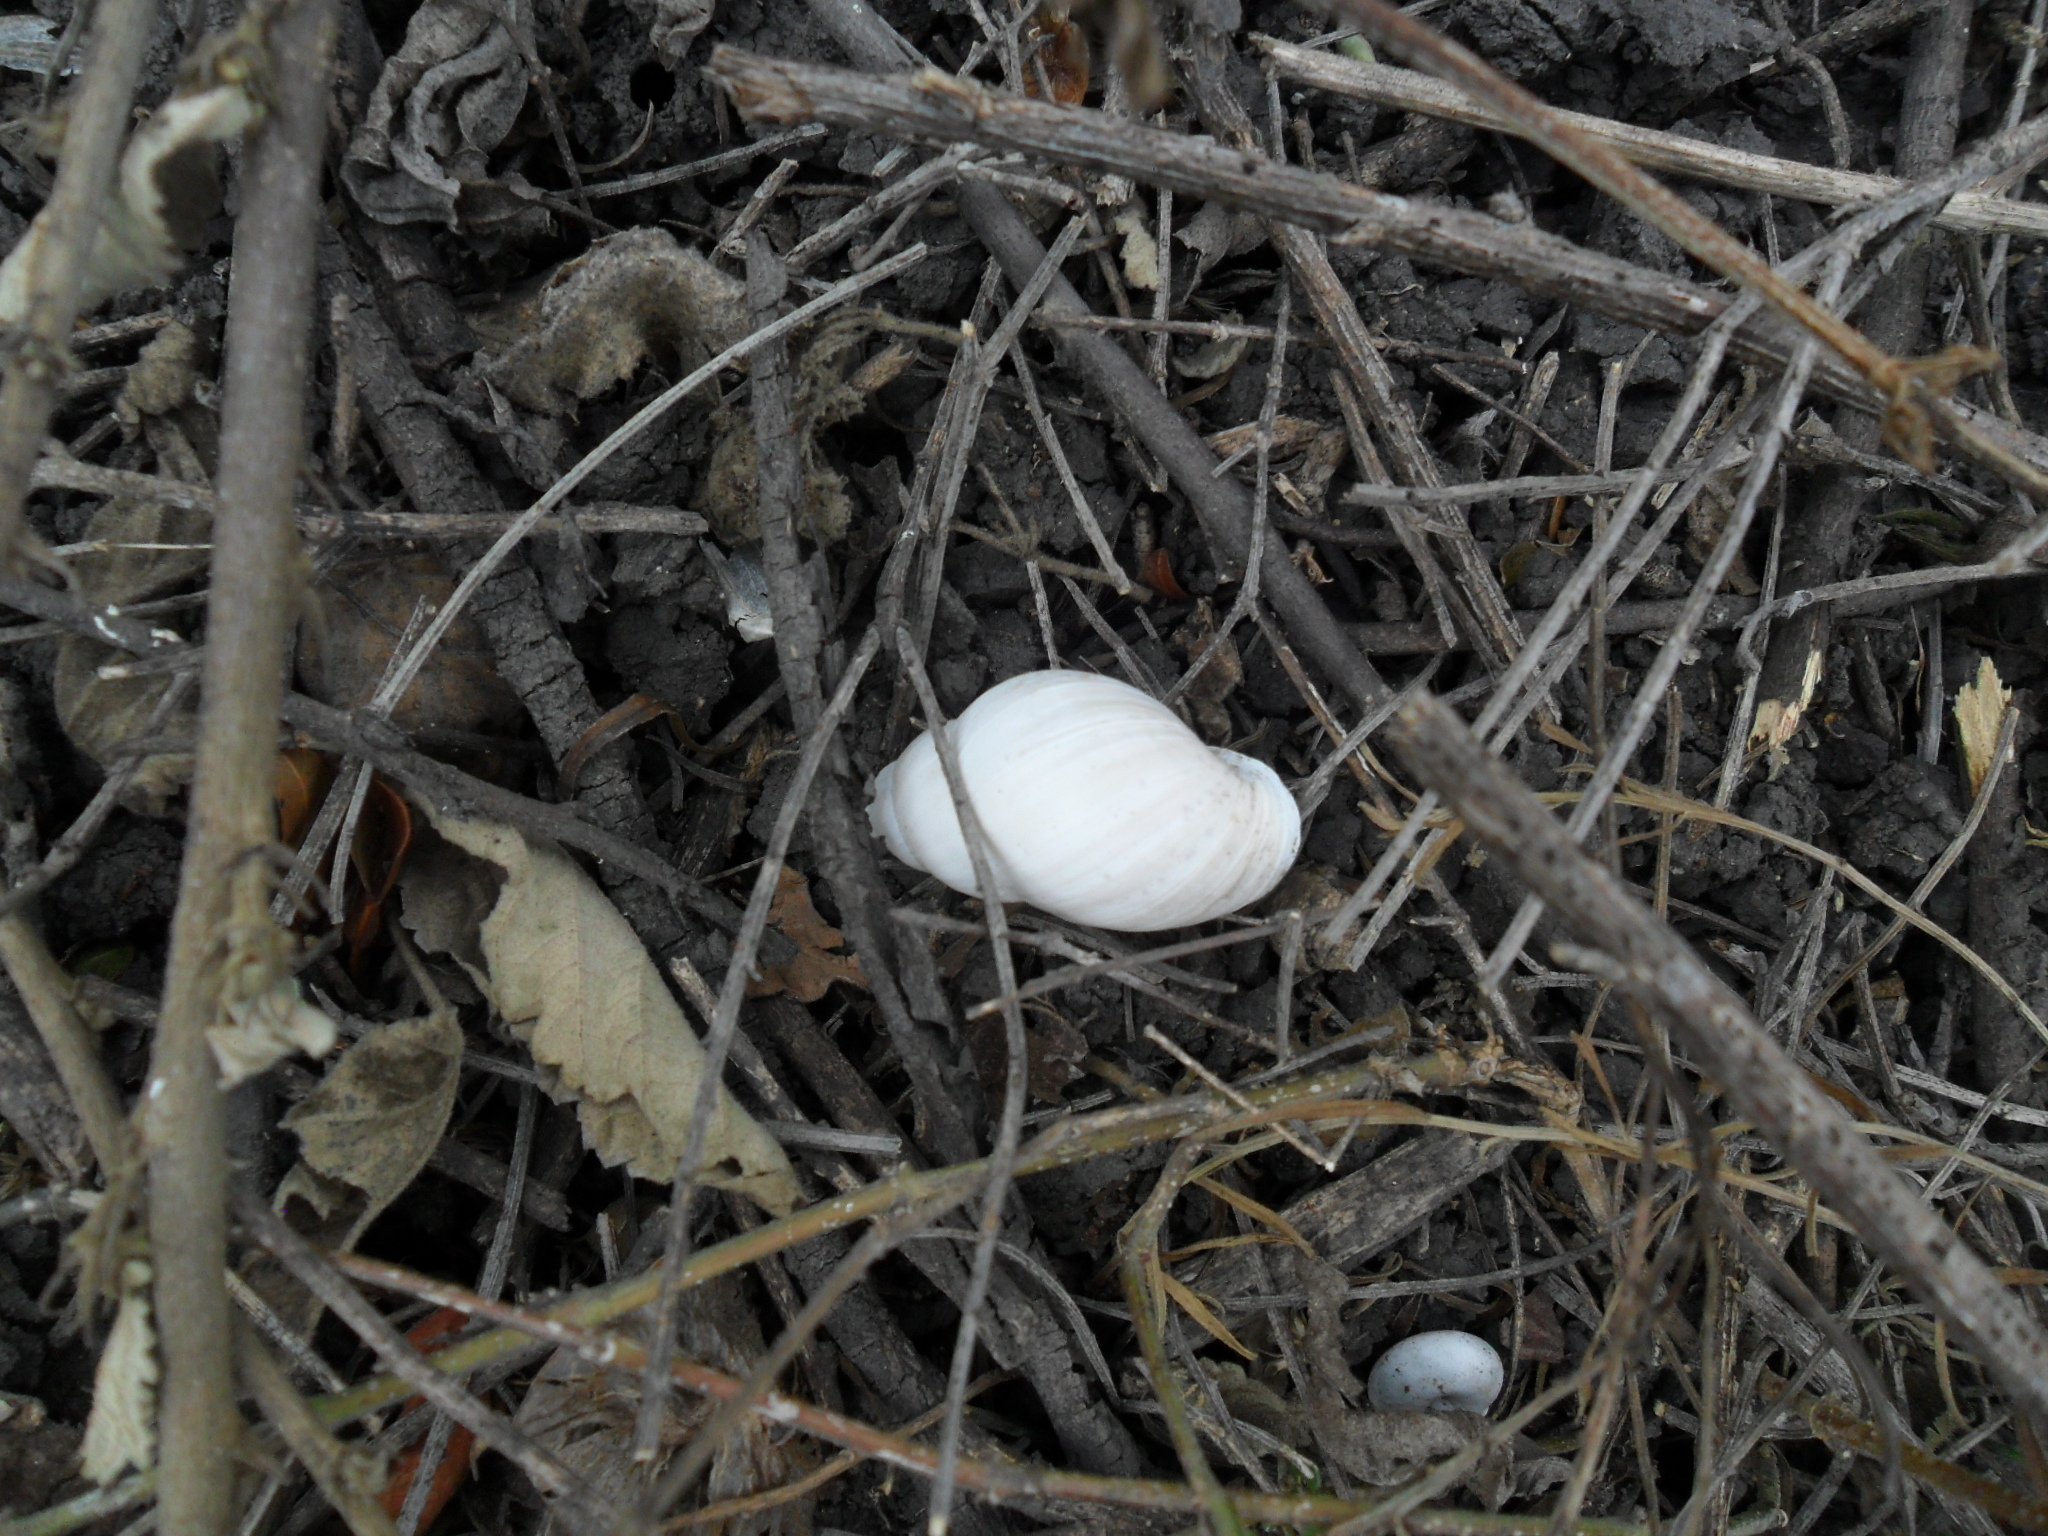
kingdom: Animalia
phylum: Mollusca
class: Gastropoda
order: Stylommatophora
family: Bulimulidae
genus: Rabdotus
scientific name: Rabdotus
